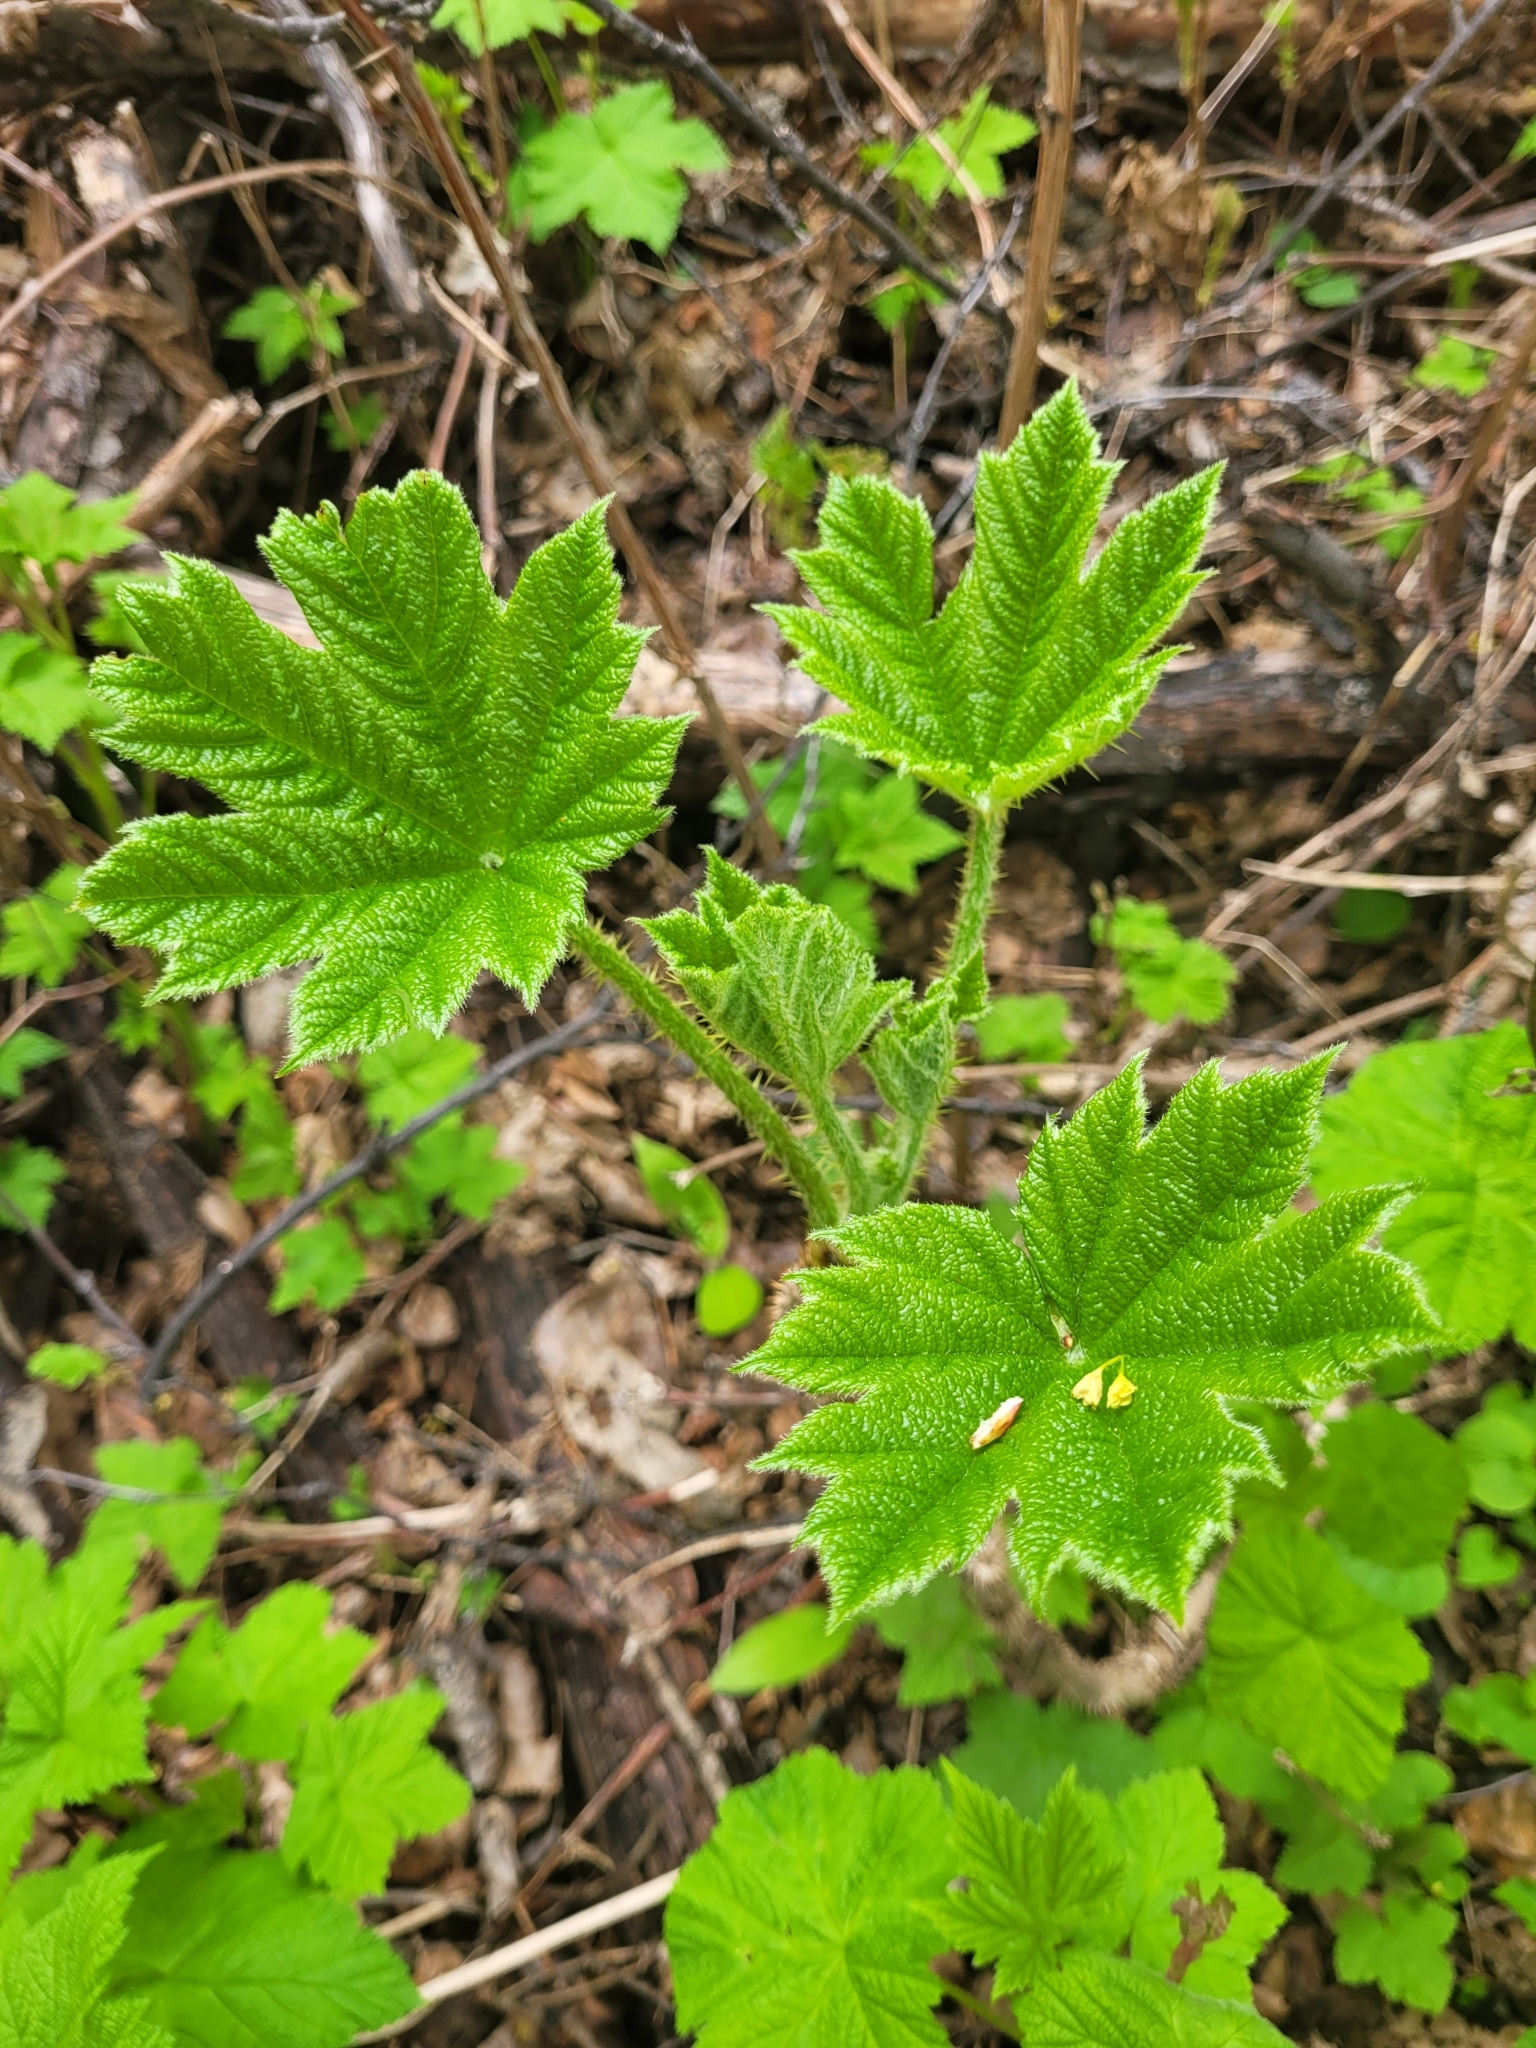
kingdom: Plantae
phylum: Tracheophyta
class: Magnoliopsida
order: Apiales
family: Araliaceae
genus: Oplopanax
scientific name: Oplopanax horridus
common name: Devil's walking-stick
